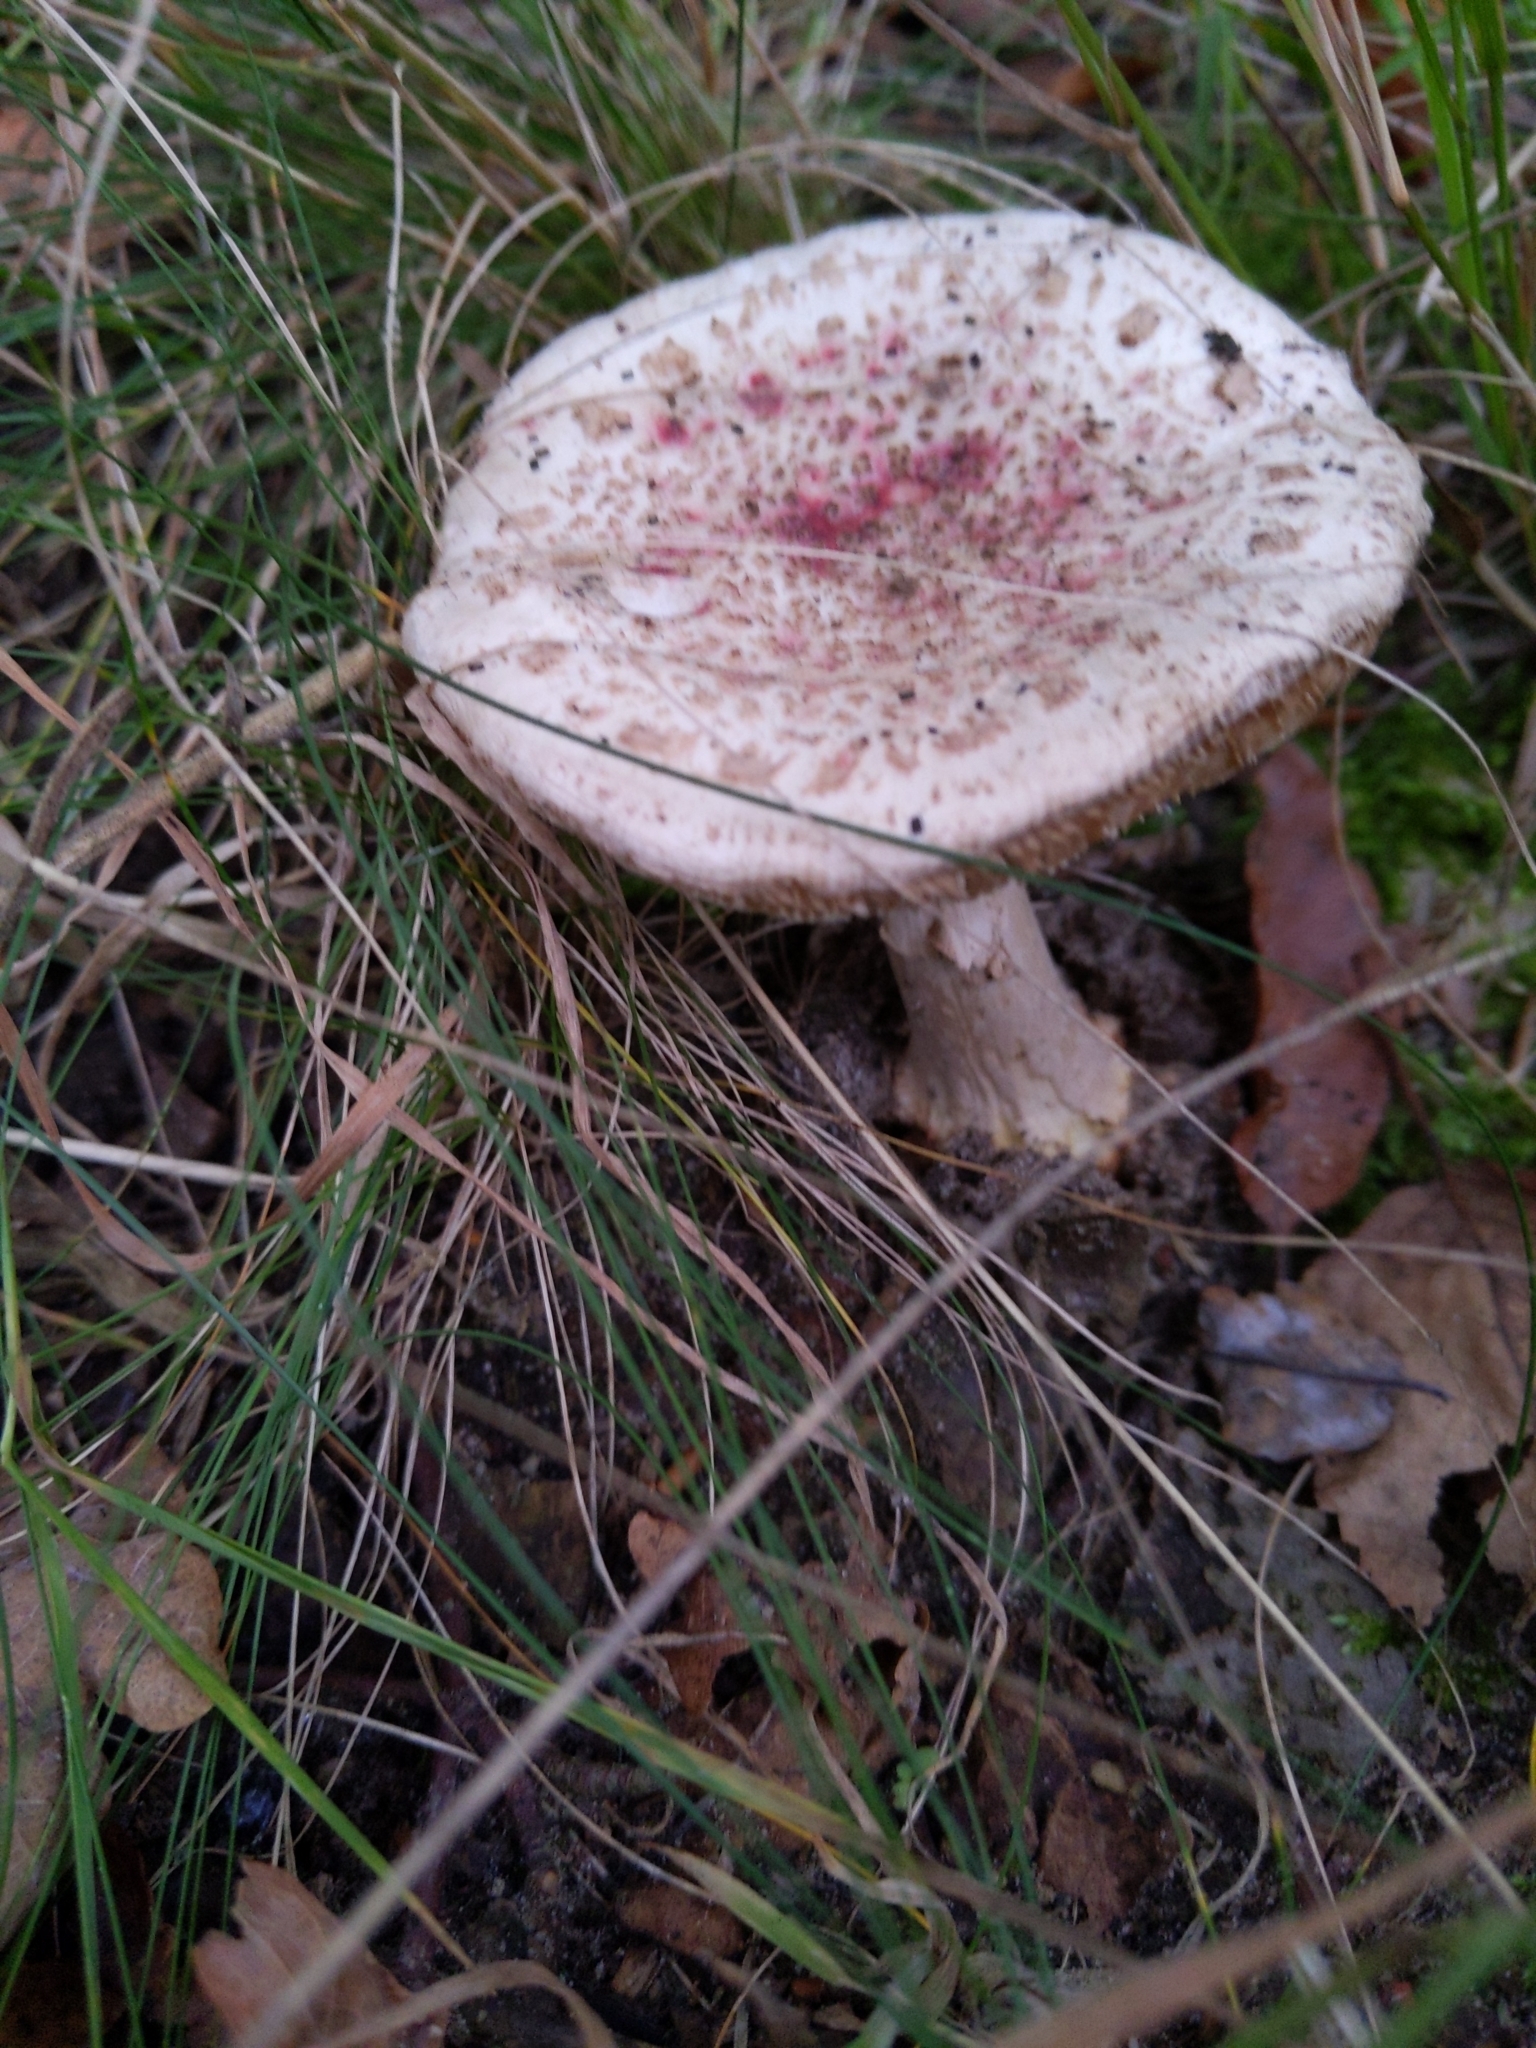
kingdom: Fungi
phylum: Basidiomycota
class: Agaricomycetes
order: Agaricales
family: Amanitaceae
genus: Amanita
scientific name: Amanita citrina
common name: False death-cap
